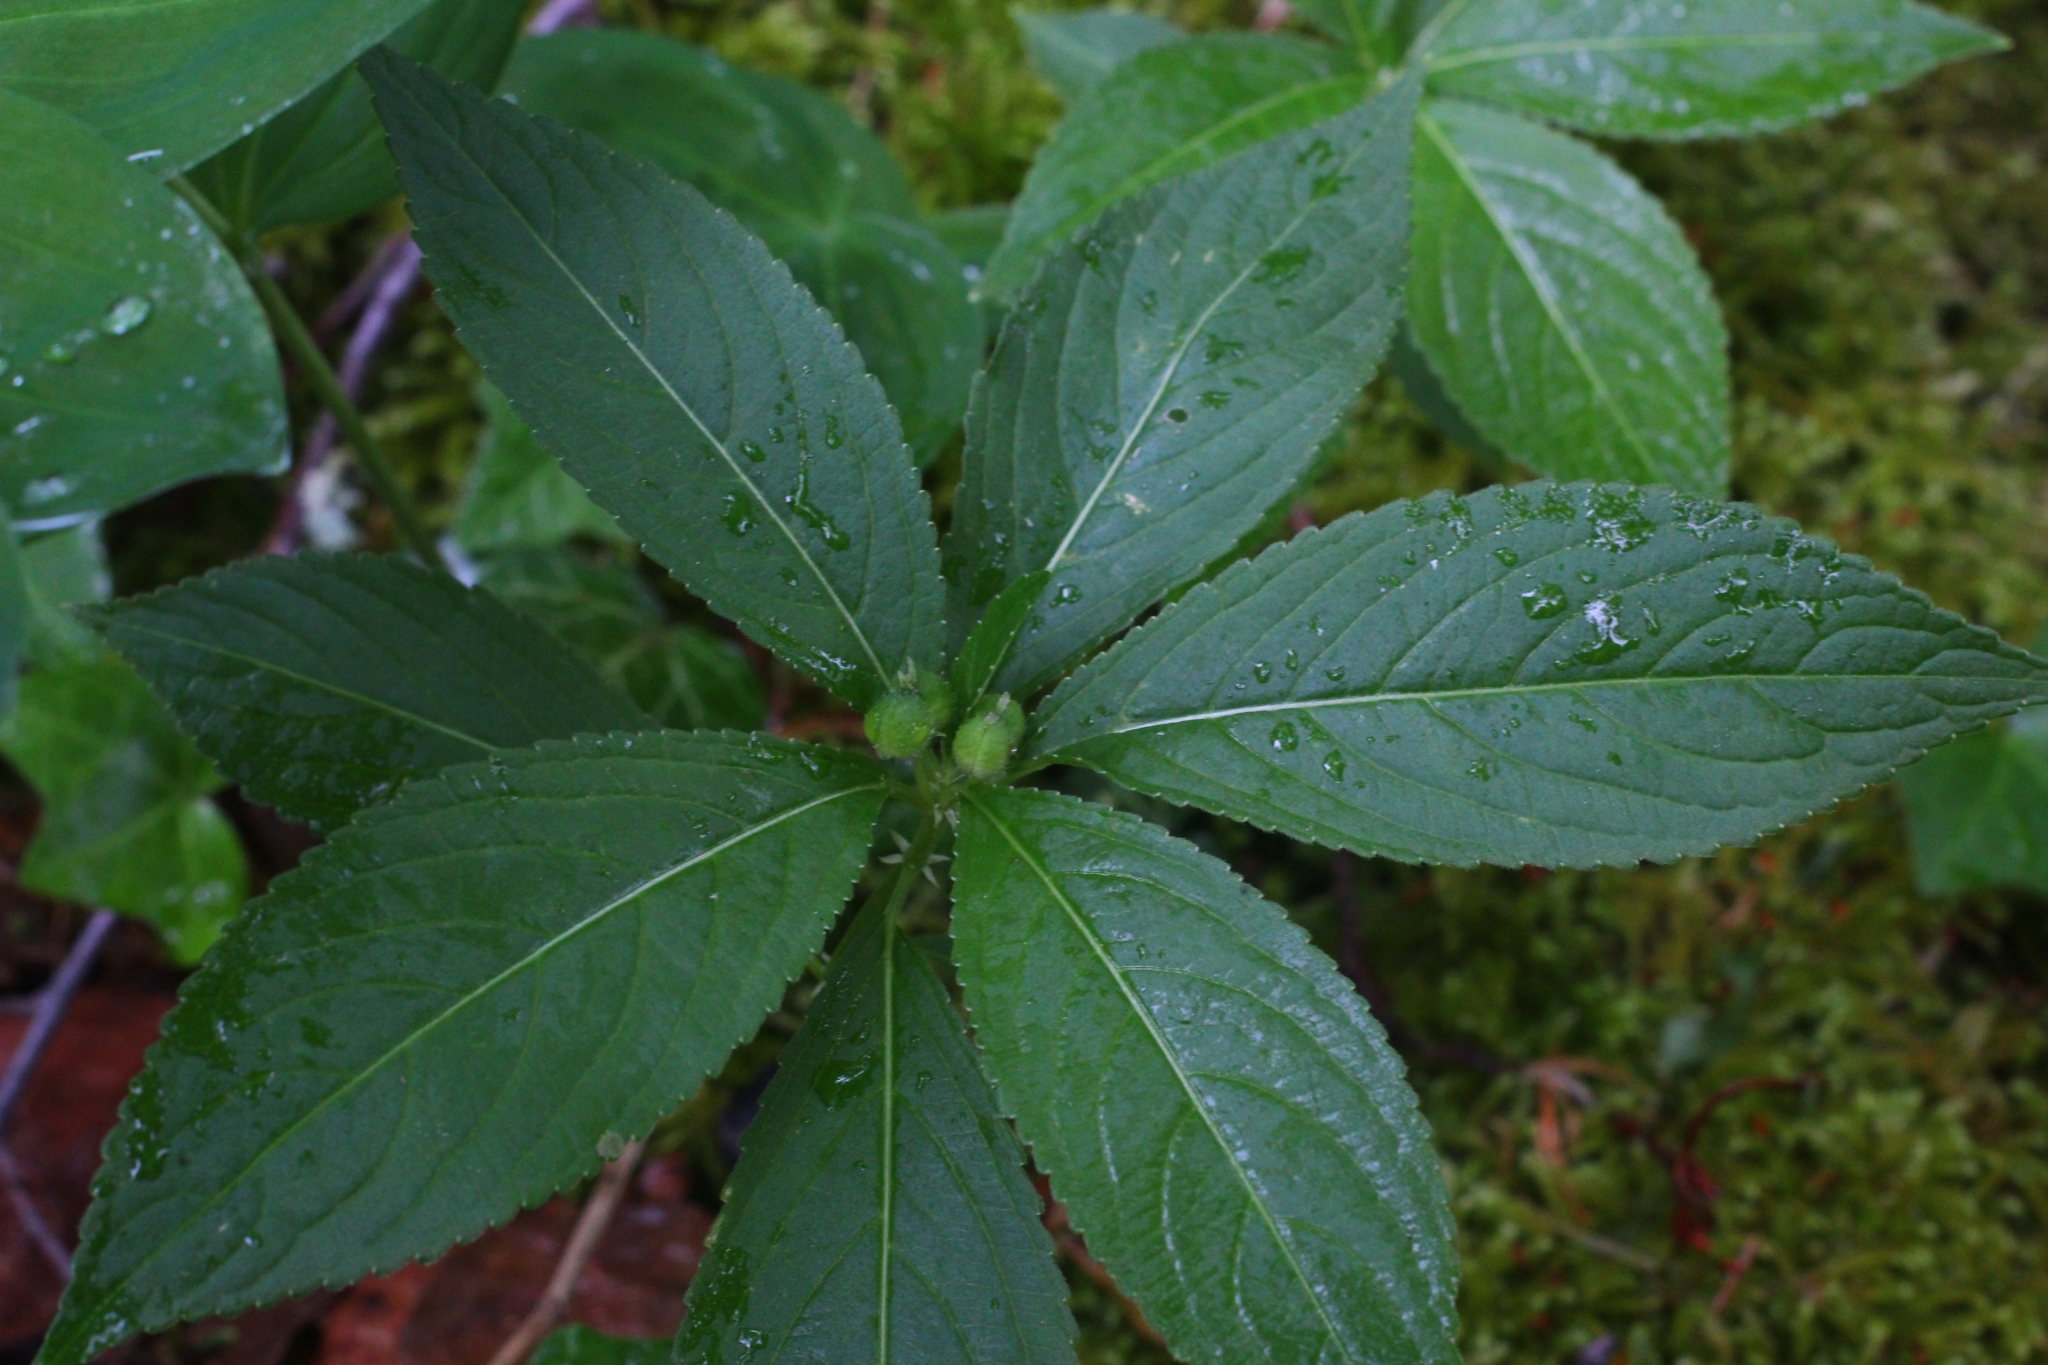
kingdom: Plantae
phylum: Tracheophyta
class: Magnoliopsida
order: Malpighiales
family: Euphorbiaceae
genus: Mercurialis
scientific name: Mercurialis perennis
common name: Dog mercury
